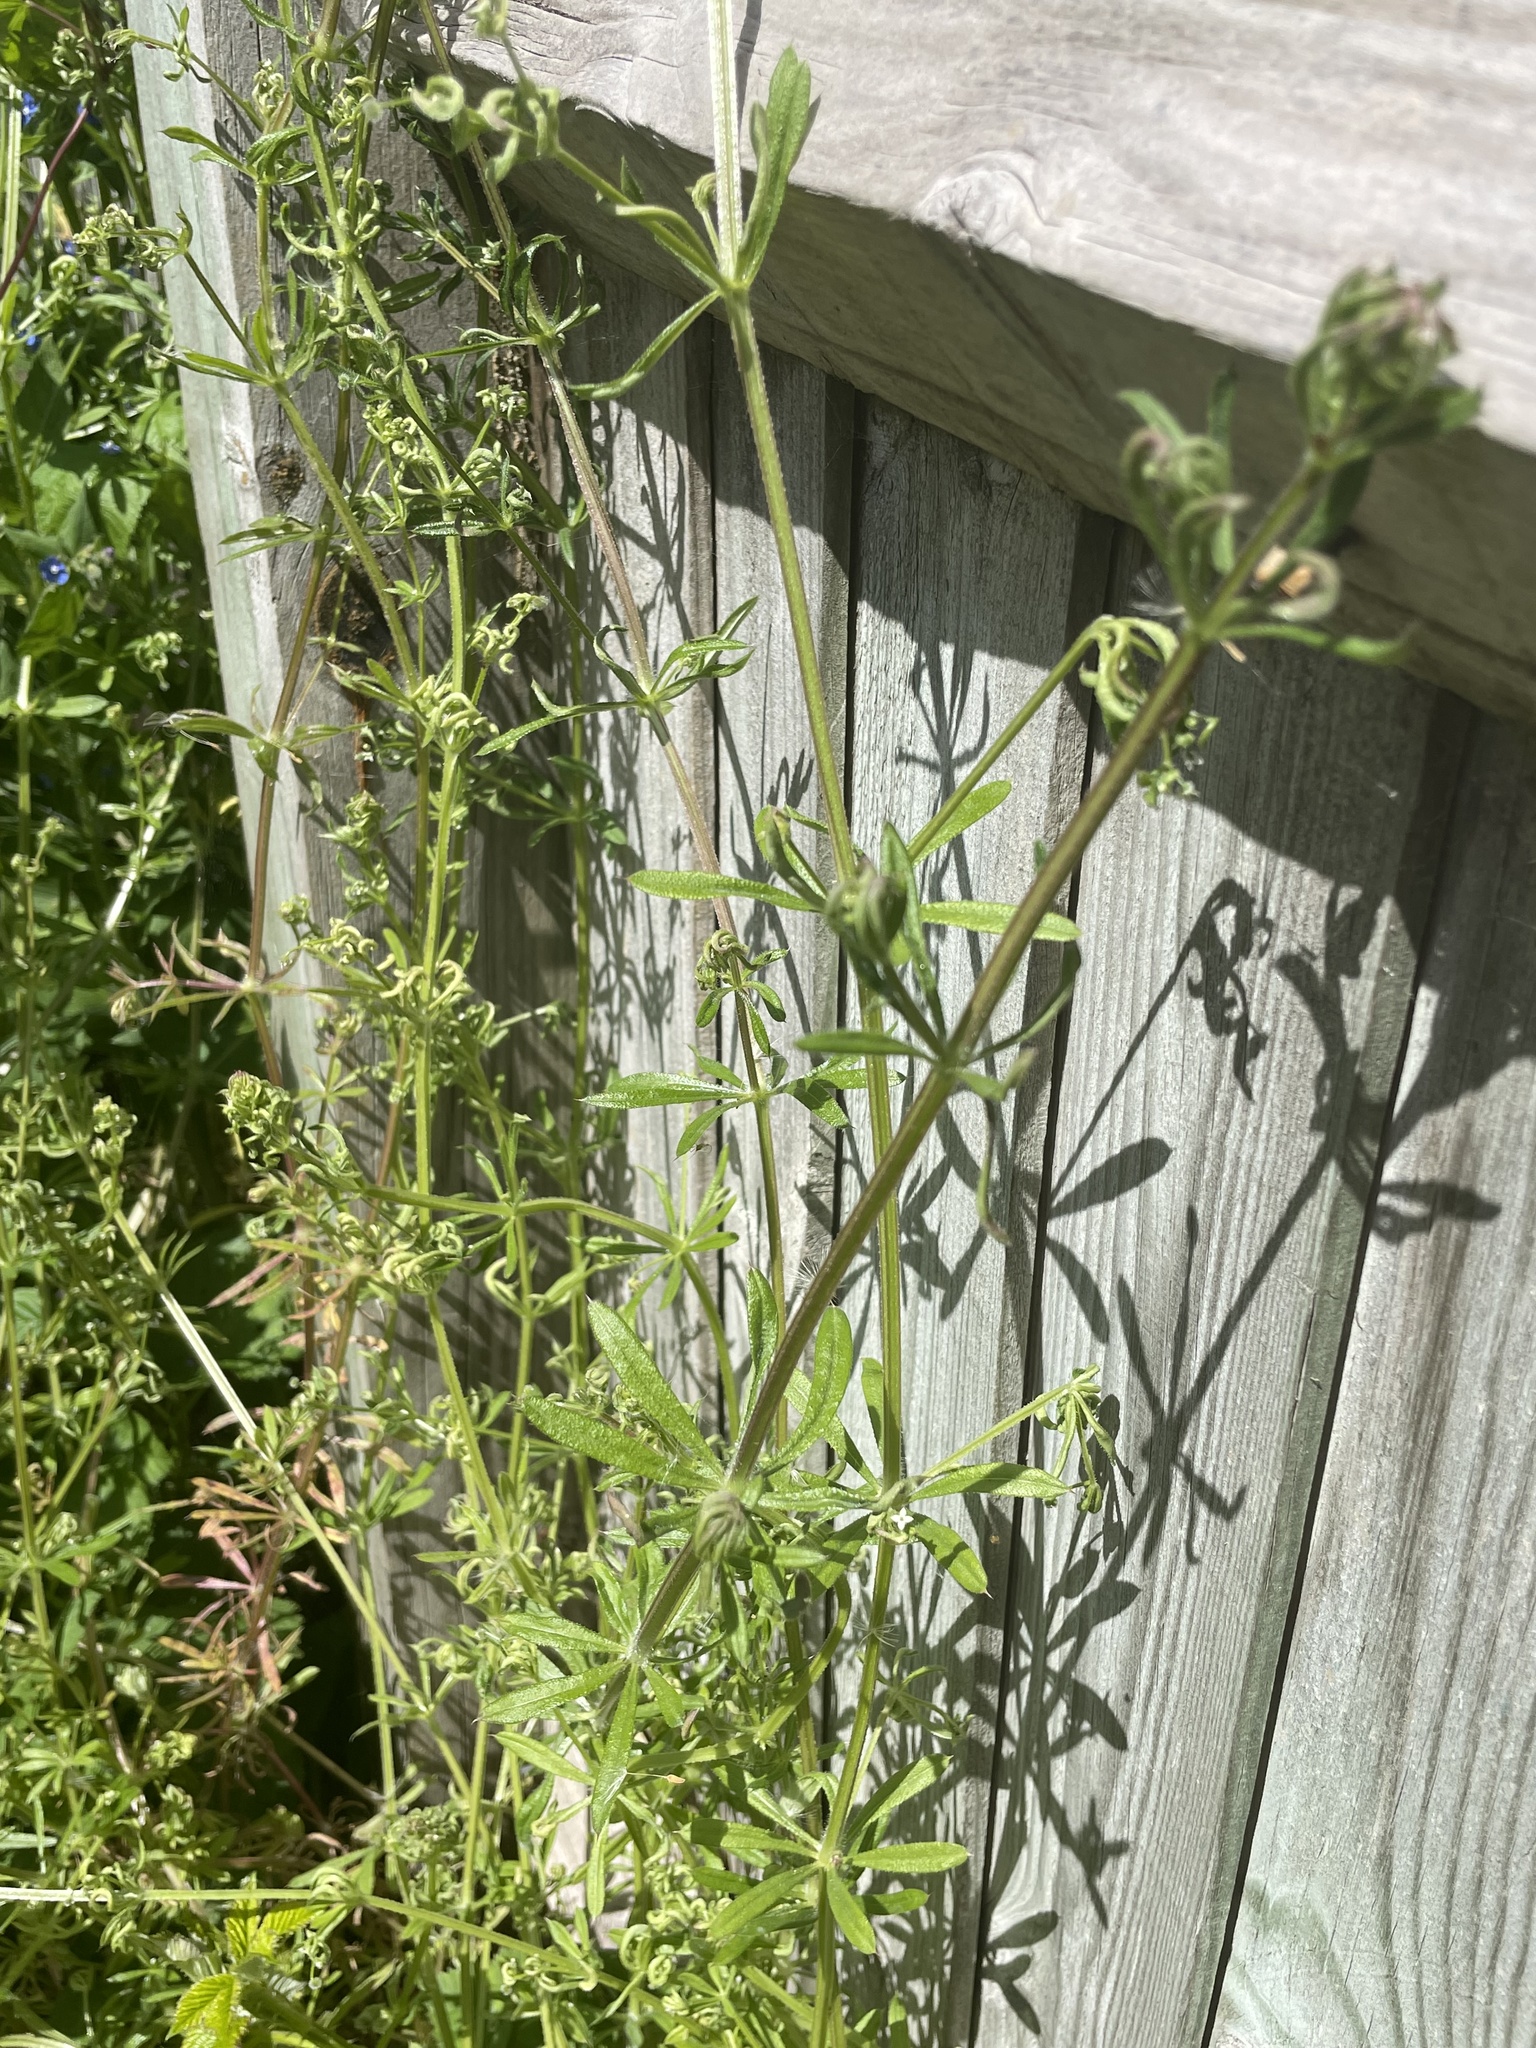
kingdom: Plantae
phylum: Tracheophyta
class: Magnoliopsida
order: Gentianales
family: Rubiaceae
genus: Galium
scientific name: Galium aparine
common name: Cleavers
